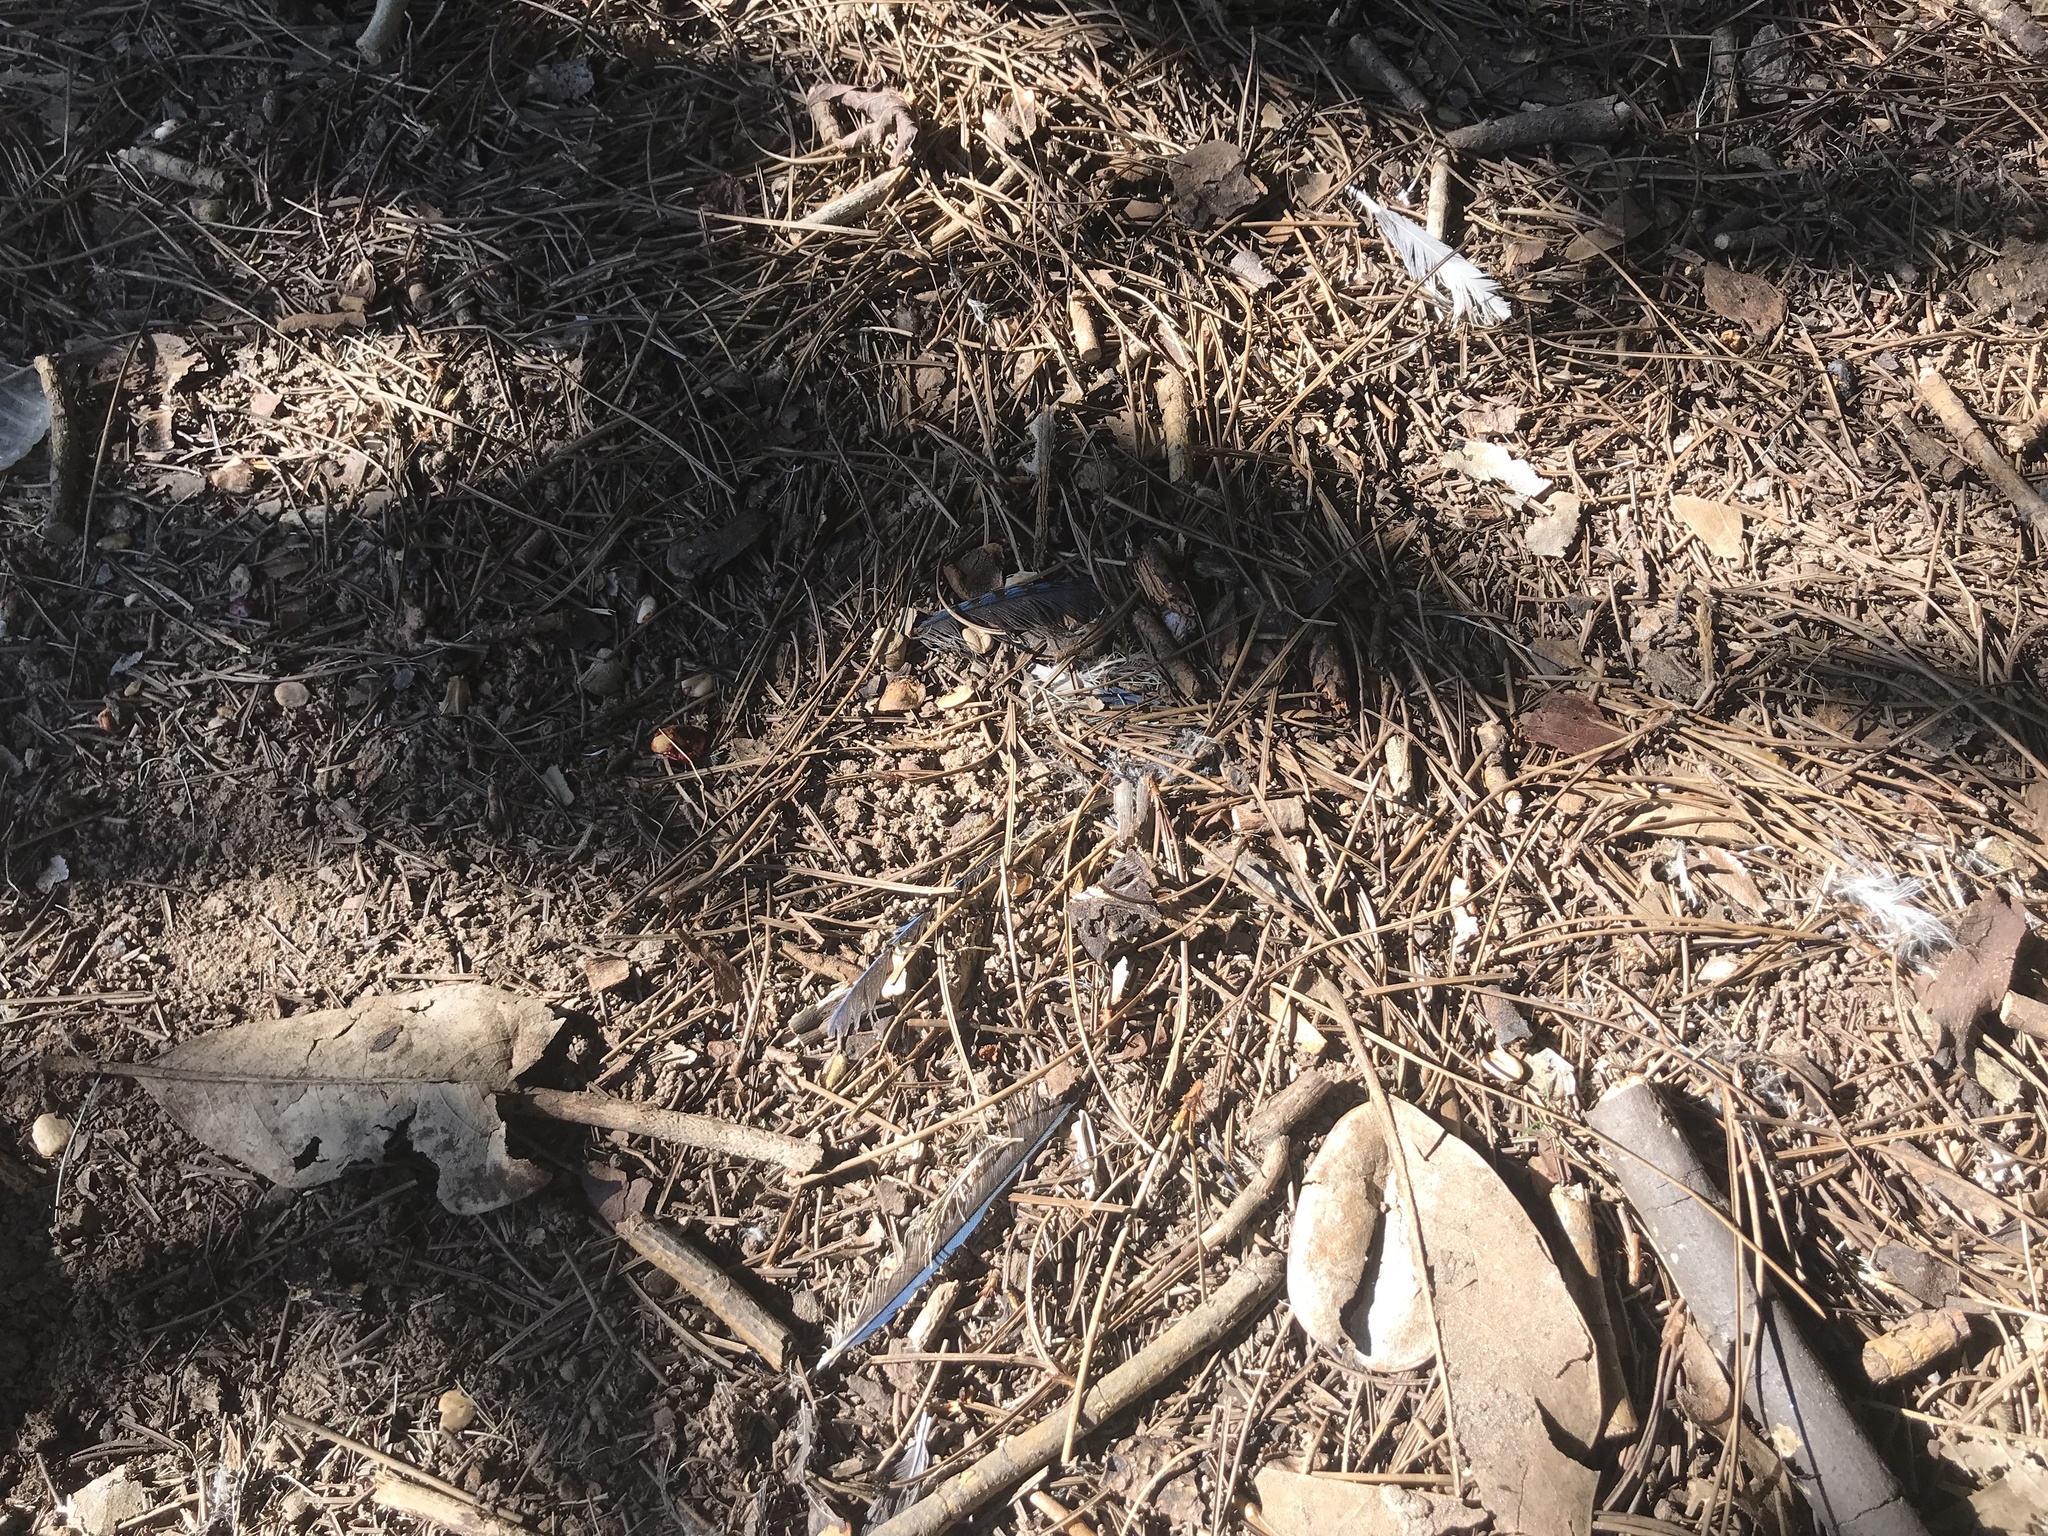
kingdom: Animalia
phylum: Chordata
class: Aves
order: Passeriformes
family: Corvidae
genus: Cyanocitta
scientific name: Cyanocitta cristata
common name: Blue jay
